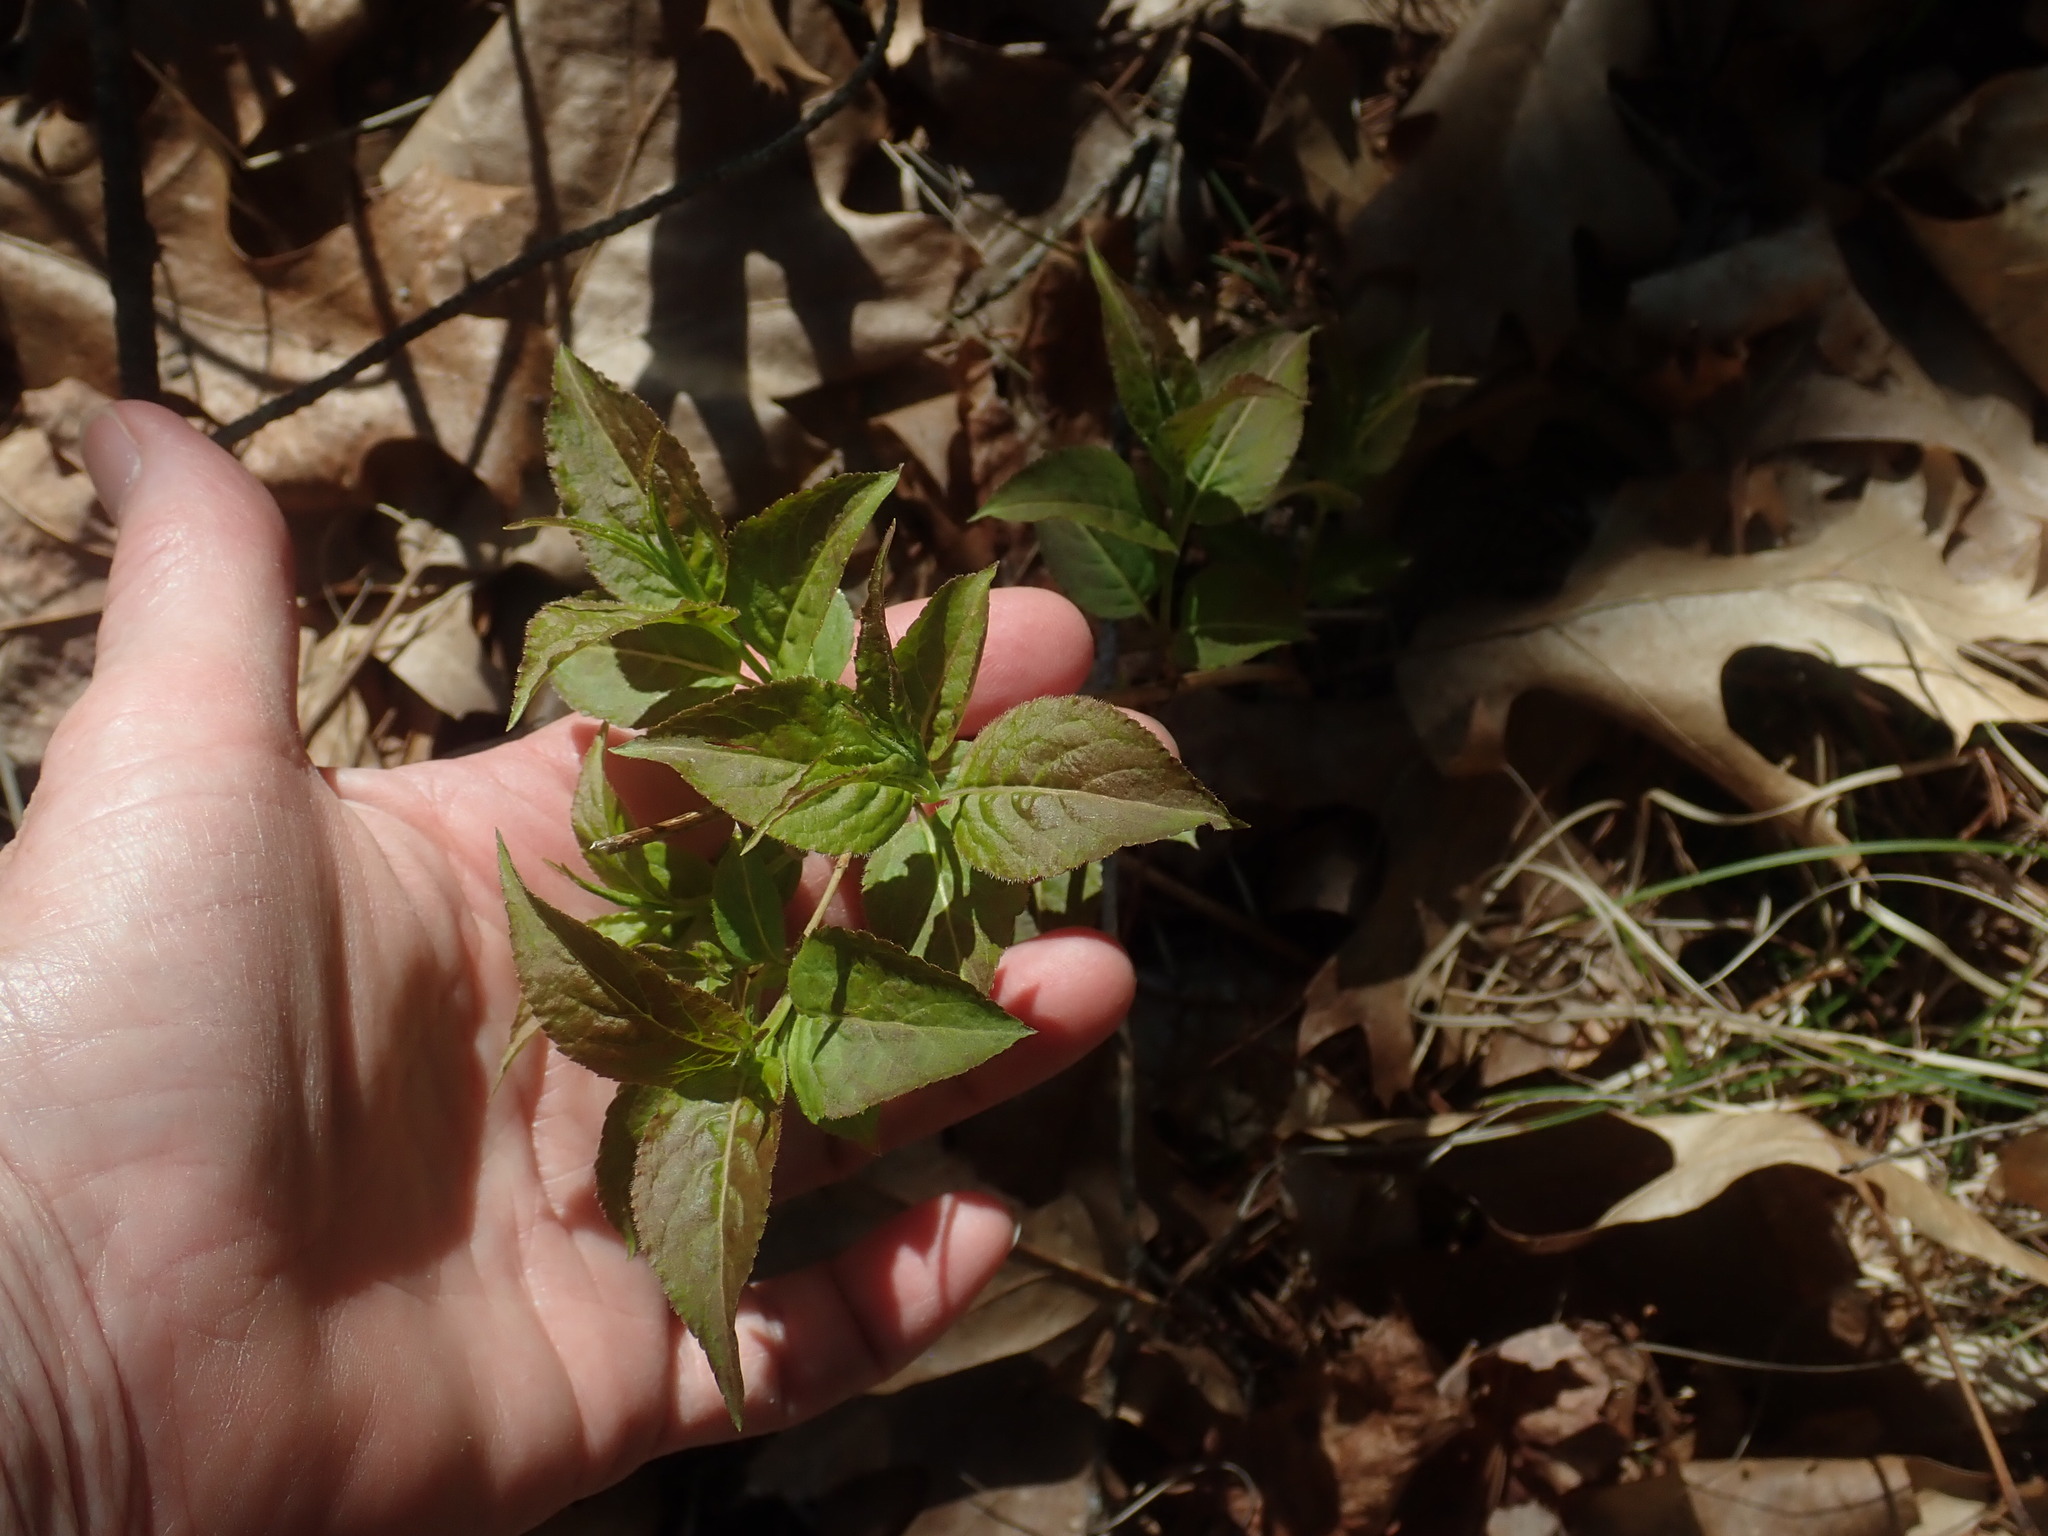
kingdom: Plantae
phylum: Tracheophyta
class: Magnoliopsida
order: Dipsacales
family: Caprifoliaceae
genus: Diervilla
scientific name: Diervilla lonicera
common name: Bush-honeysuckle
